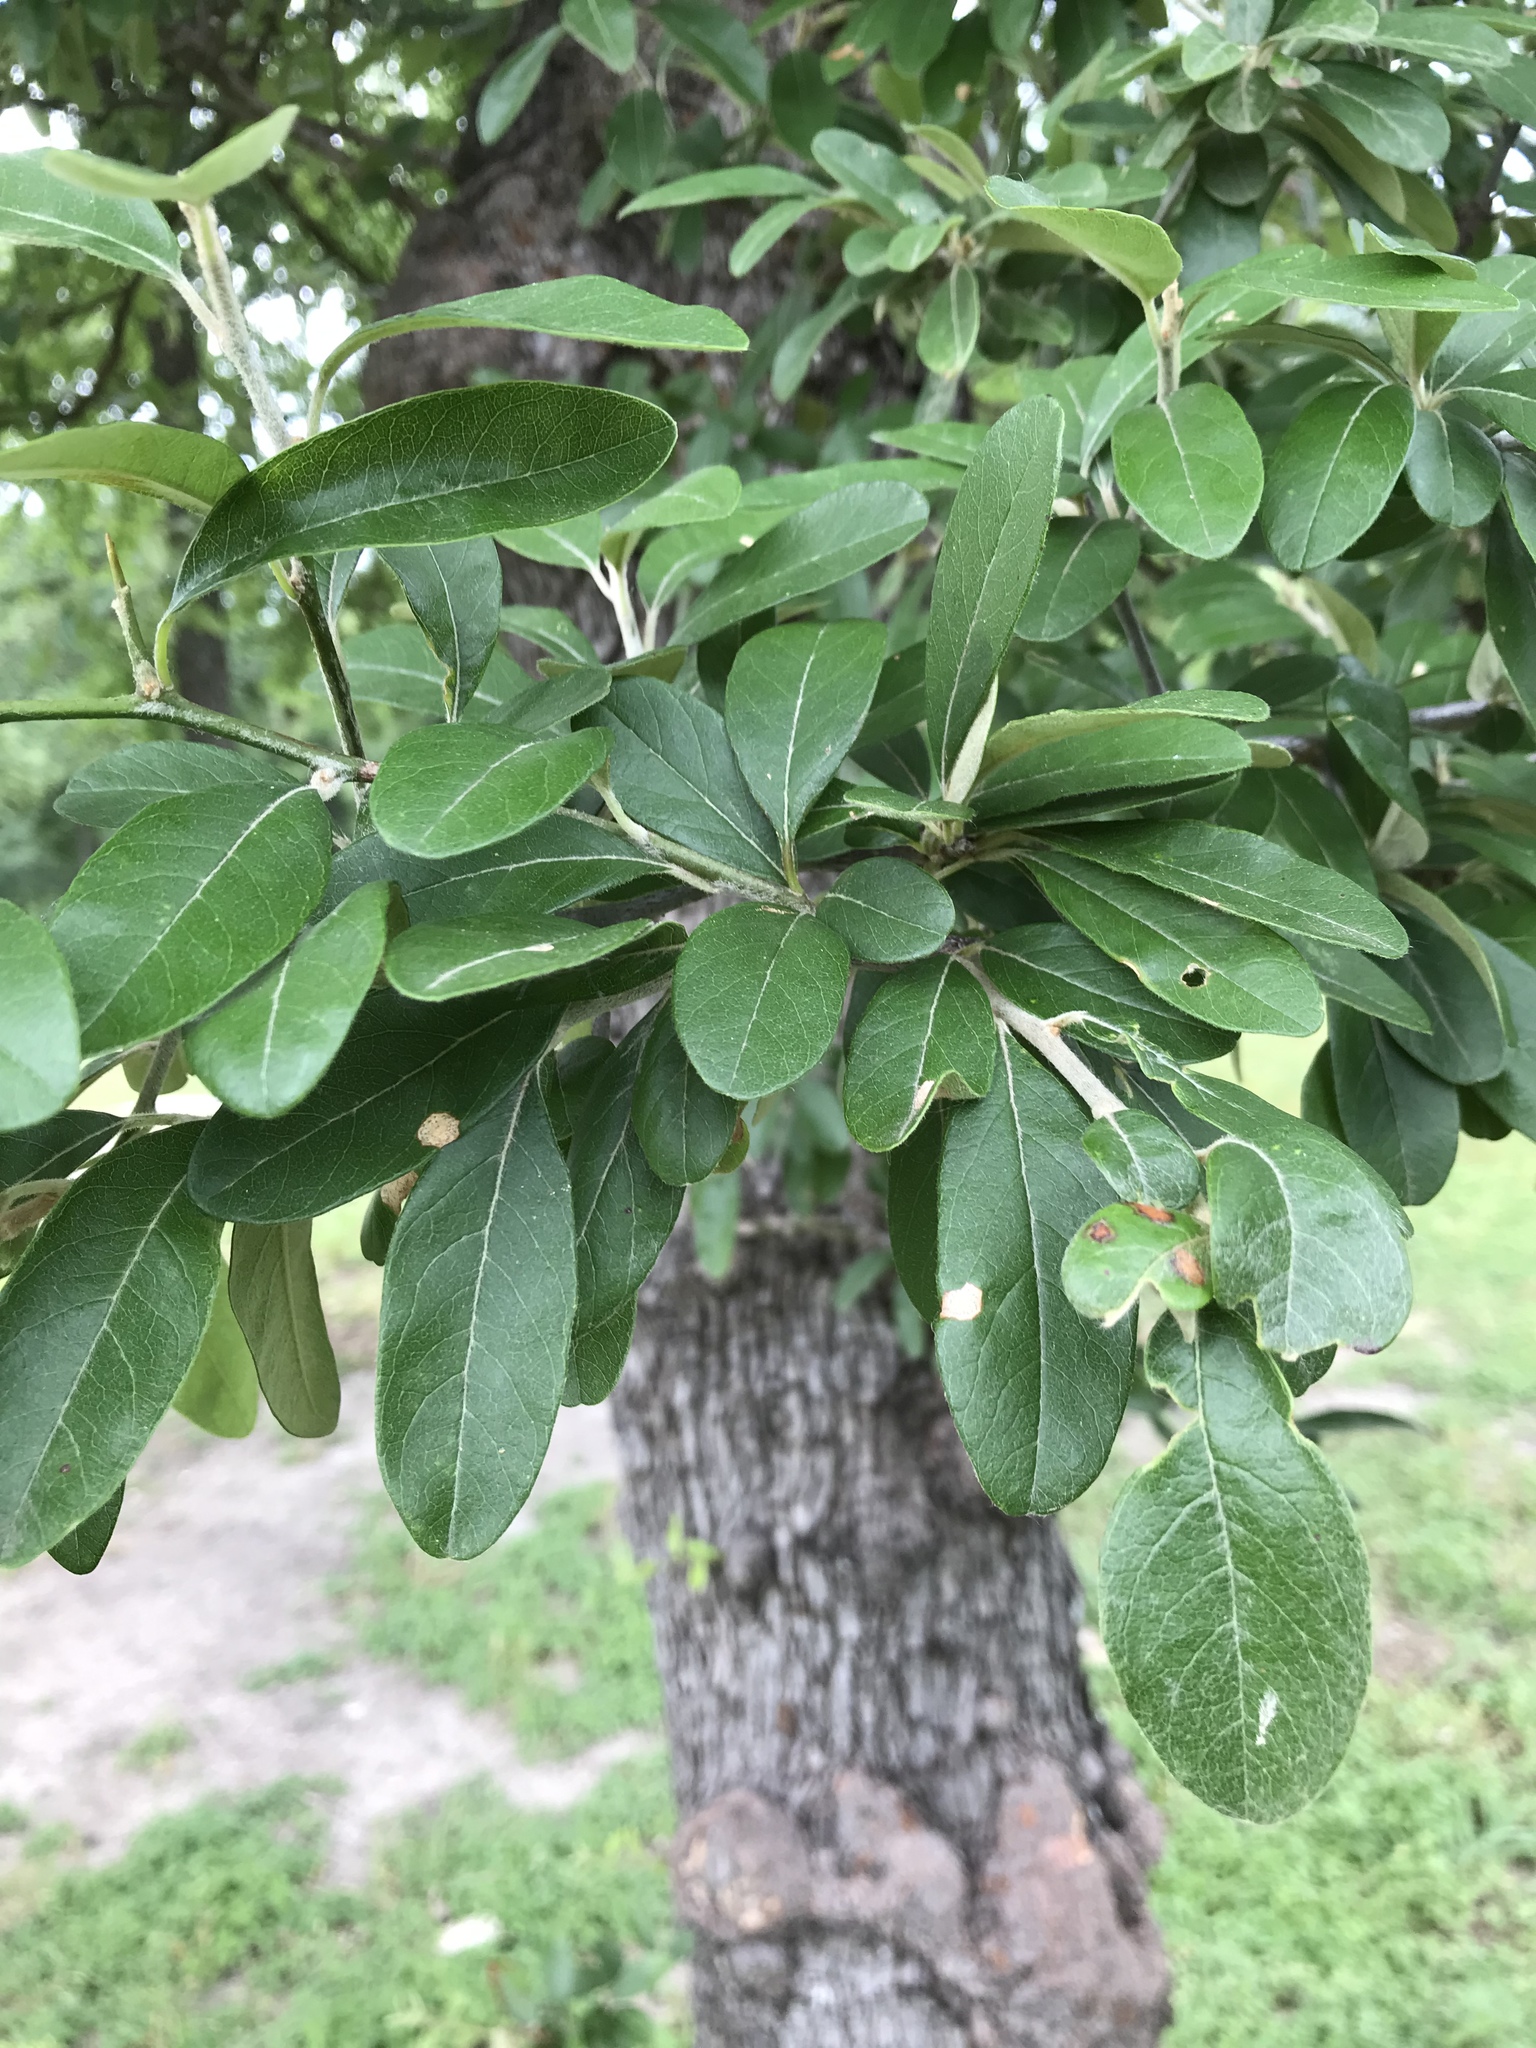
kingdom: Plantae
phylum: Tracheophyta
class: Magnoliopsida
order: Ericales
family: Sapotaceae
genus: Sideroxylon
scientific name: Sideroxylon lanuginosum
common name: Chittamwood
